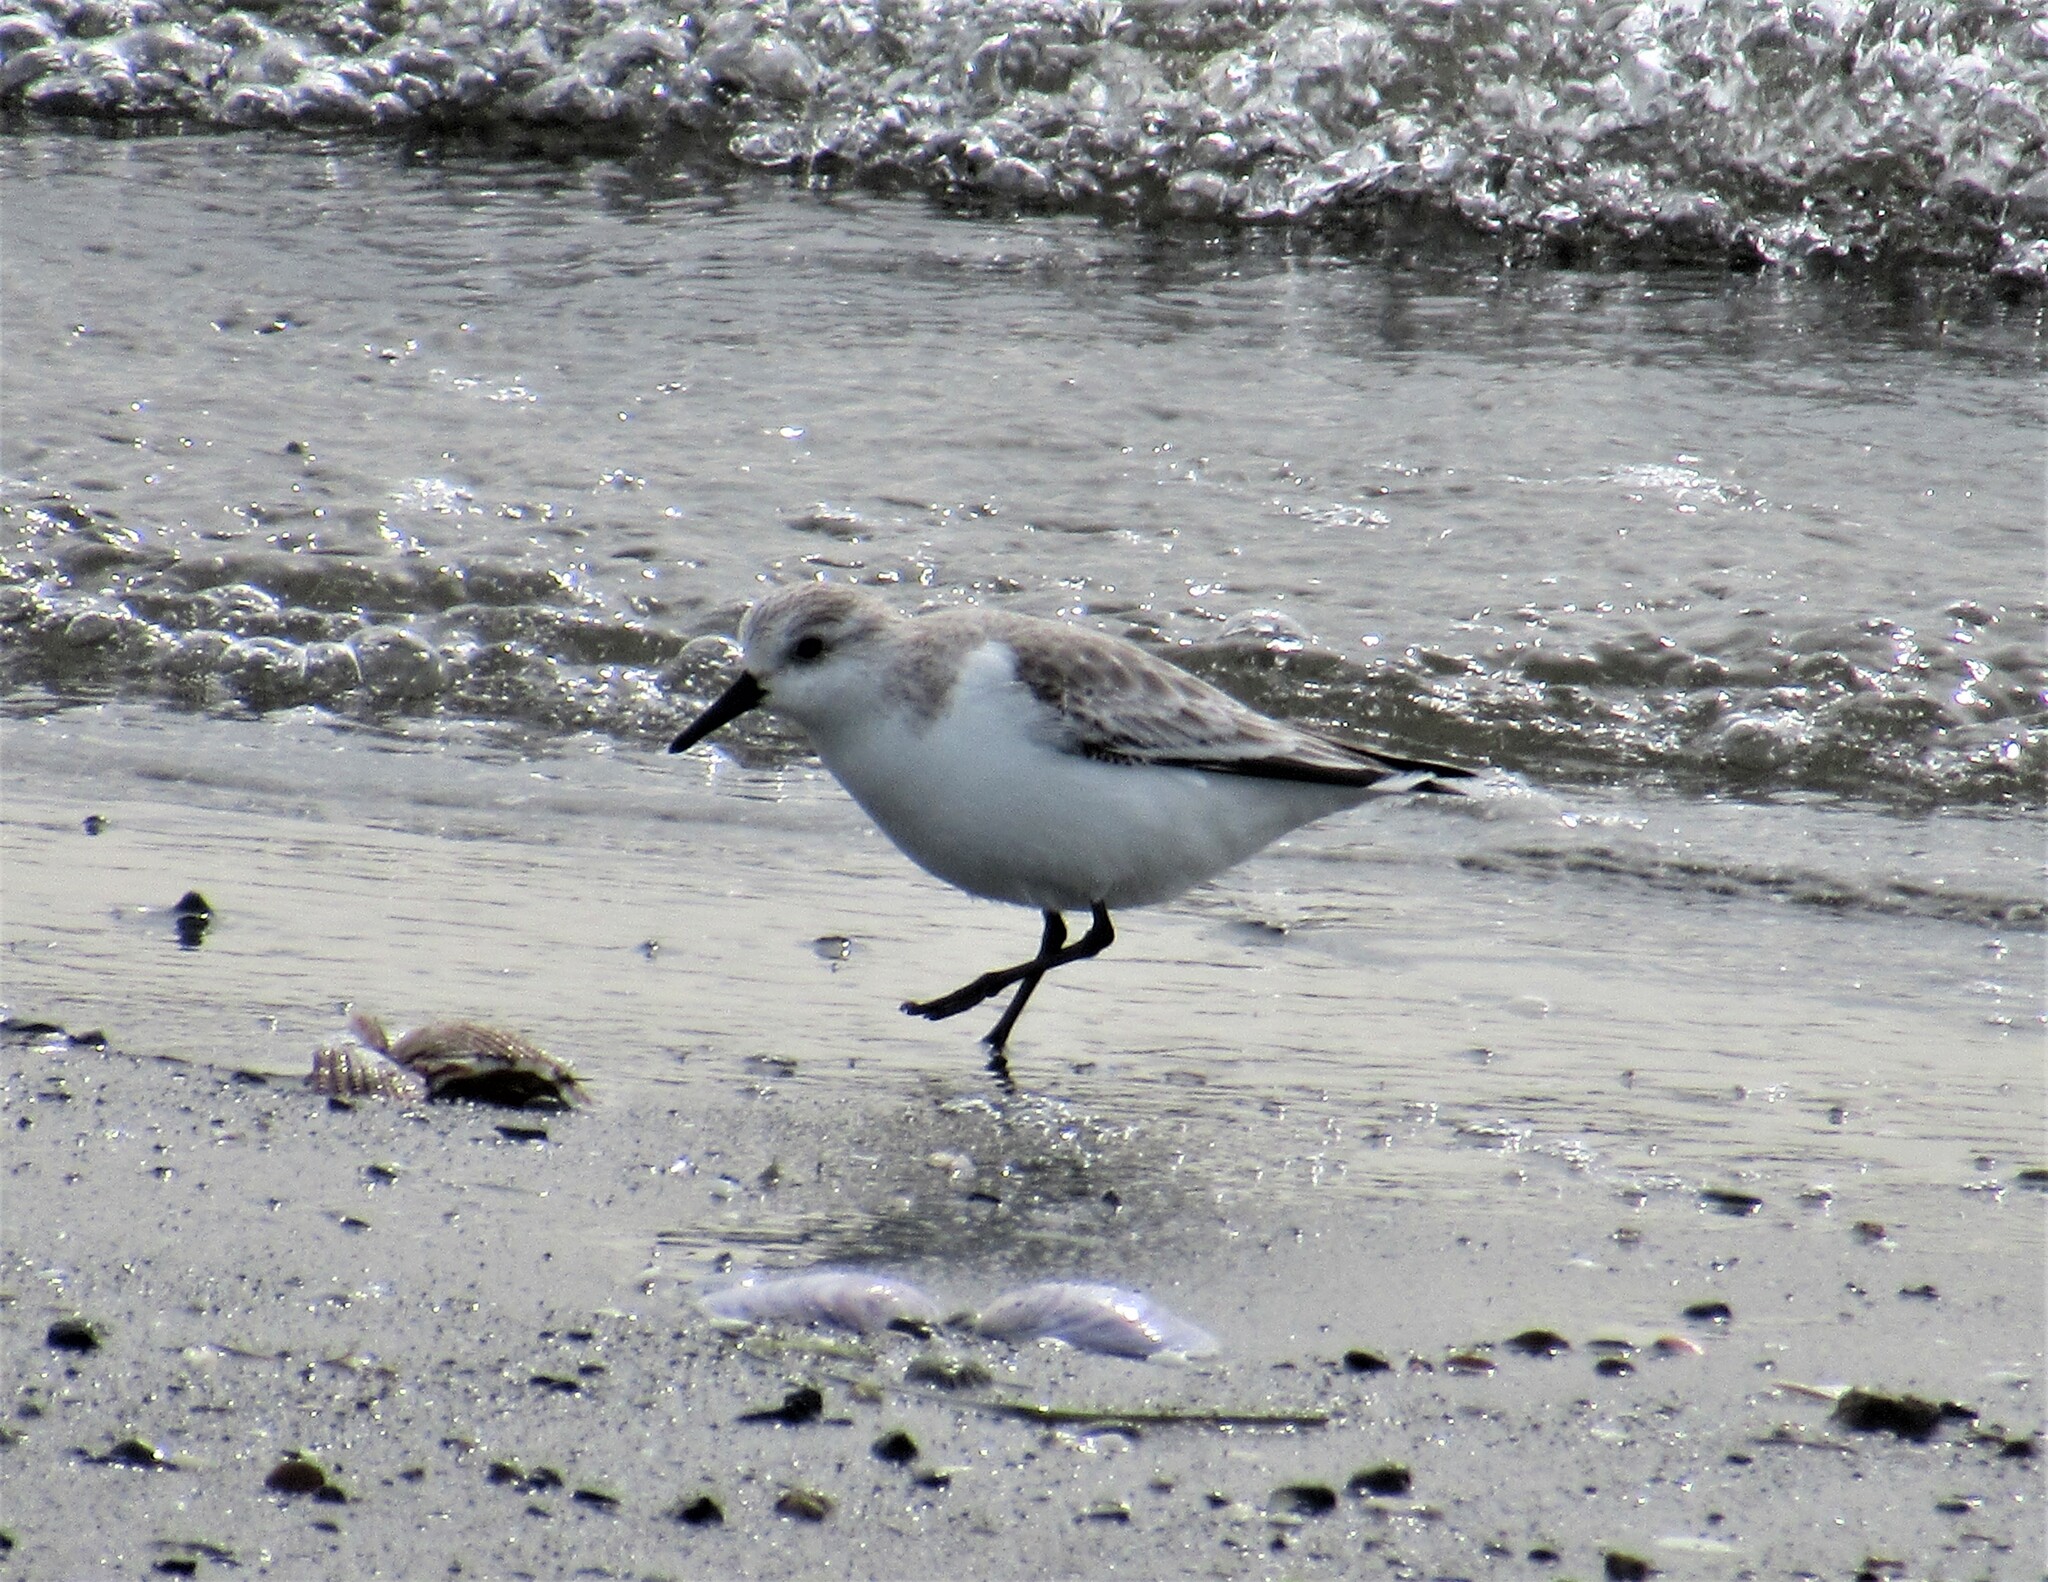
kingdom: Animalia
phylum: Chordata
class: Aves
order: Charadriiformes
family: Scolopacidae
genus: Calidris
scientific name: Calidris alba
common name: Sanderling
